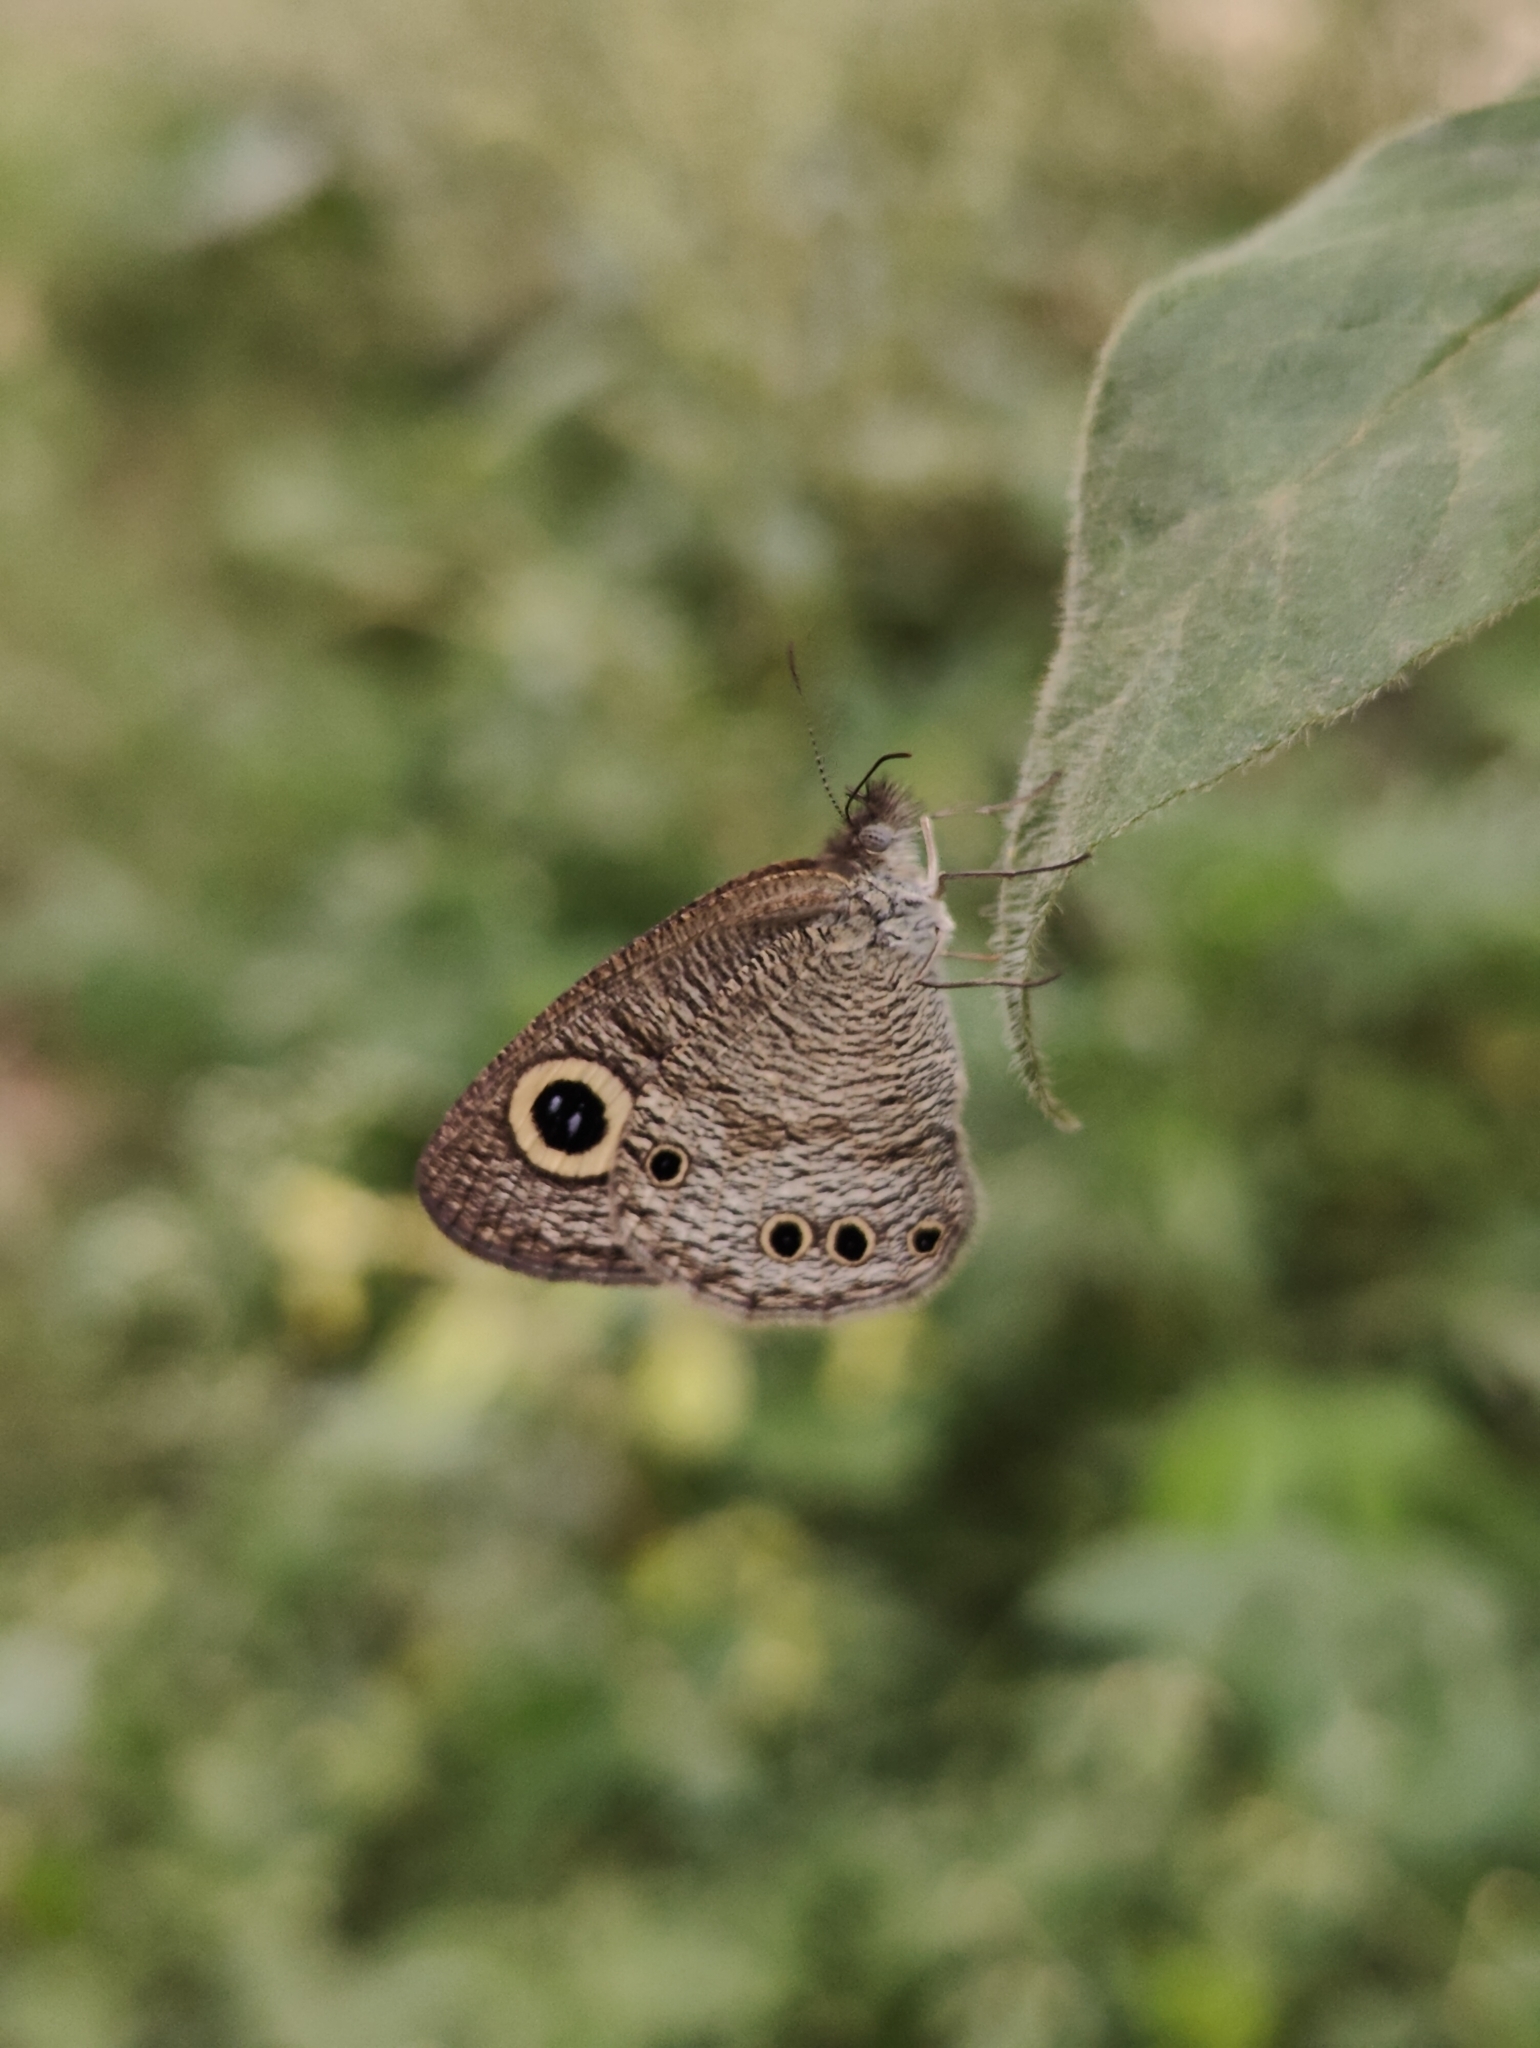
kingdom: Animalia
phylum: Arthropoda
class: Insecta
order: Lepidoptera
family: Nymphalidae
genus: Ypthima
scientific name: Ypthima huebneri
